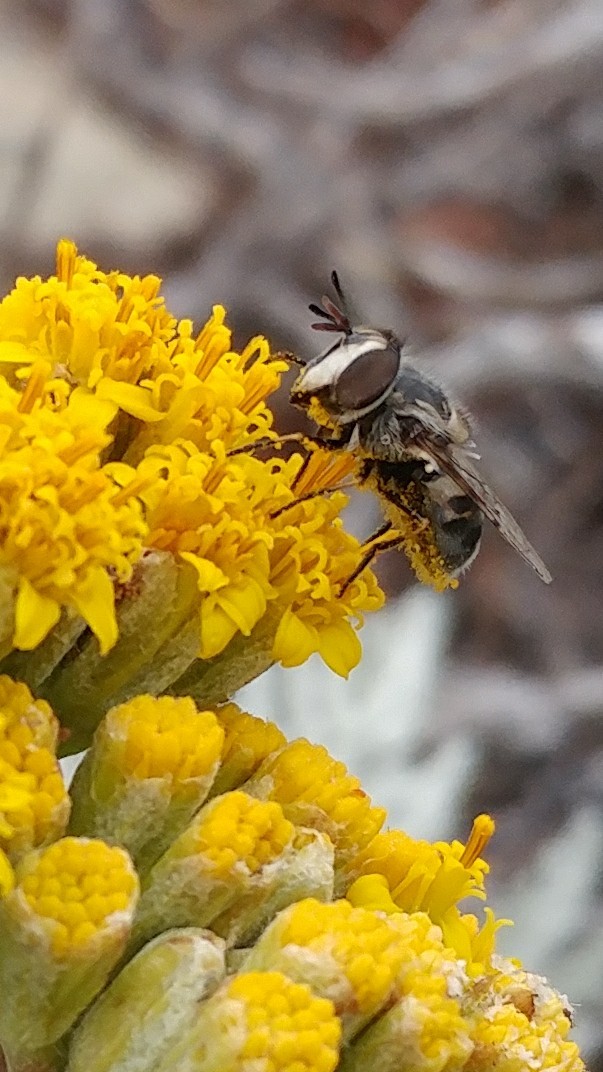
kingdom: Animalia
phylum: Arthropoda
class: Insecta
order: Diptera
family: Syrphidae
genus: Copestylum
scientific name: Copestylum lentum
